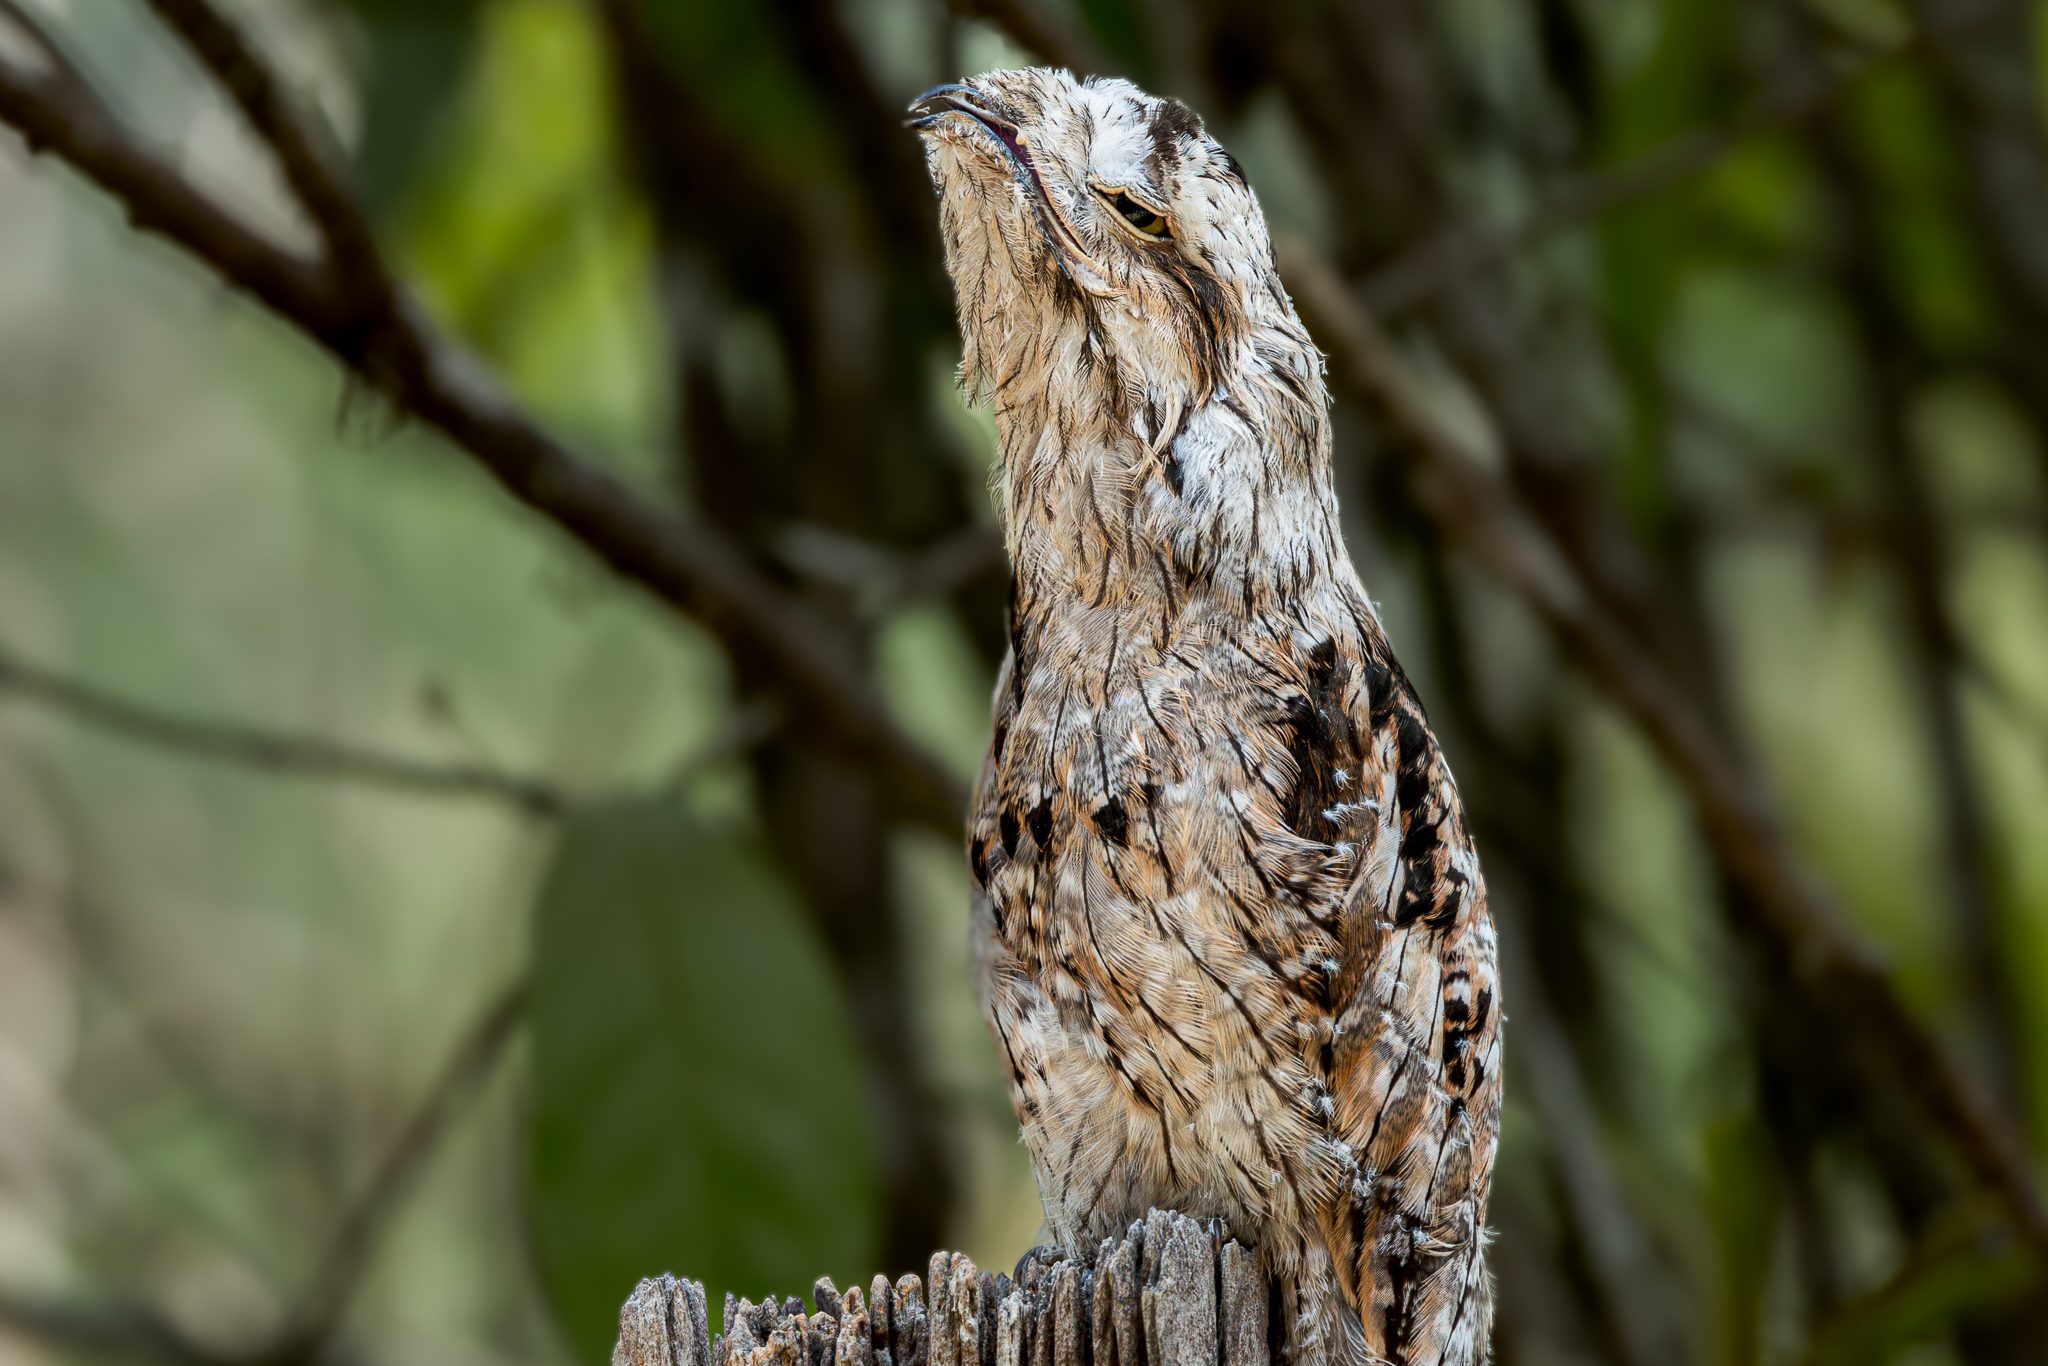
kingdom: Animalia
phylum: Chordata
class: Aves
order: Nyctibiiformes
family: Nyctibiidae
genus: Nyctibius
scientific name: Nyctibius griseus
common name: Common potoo
